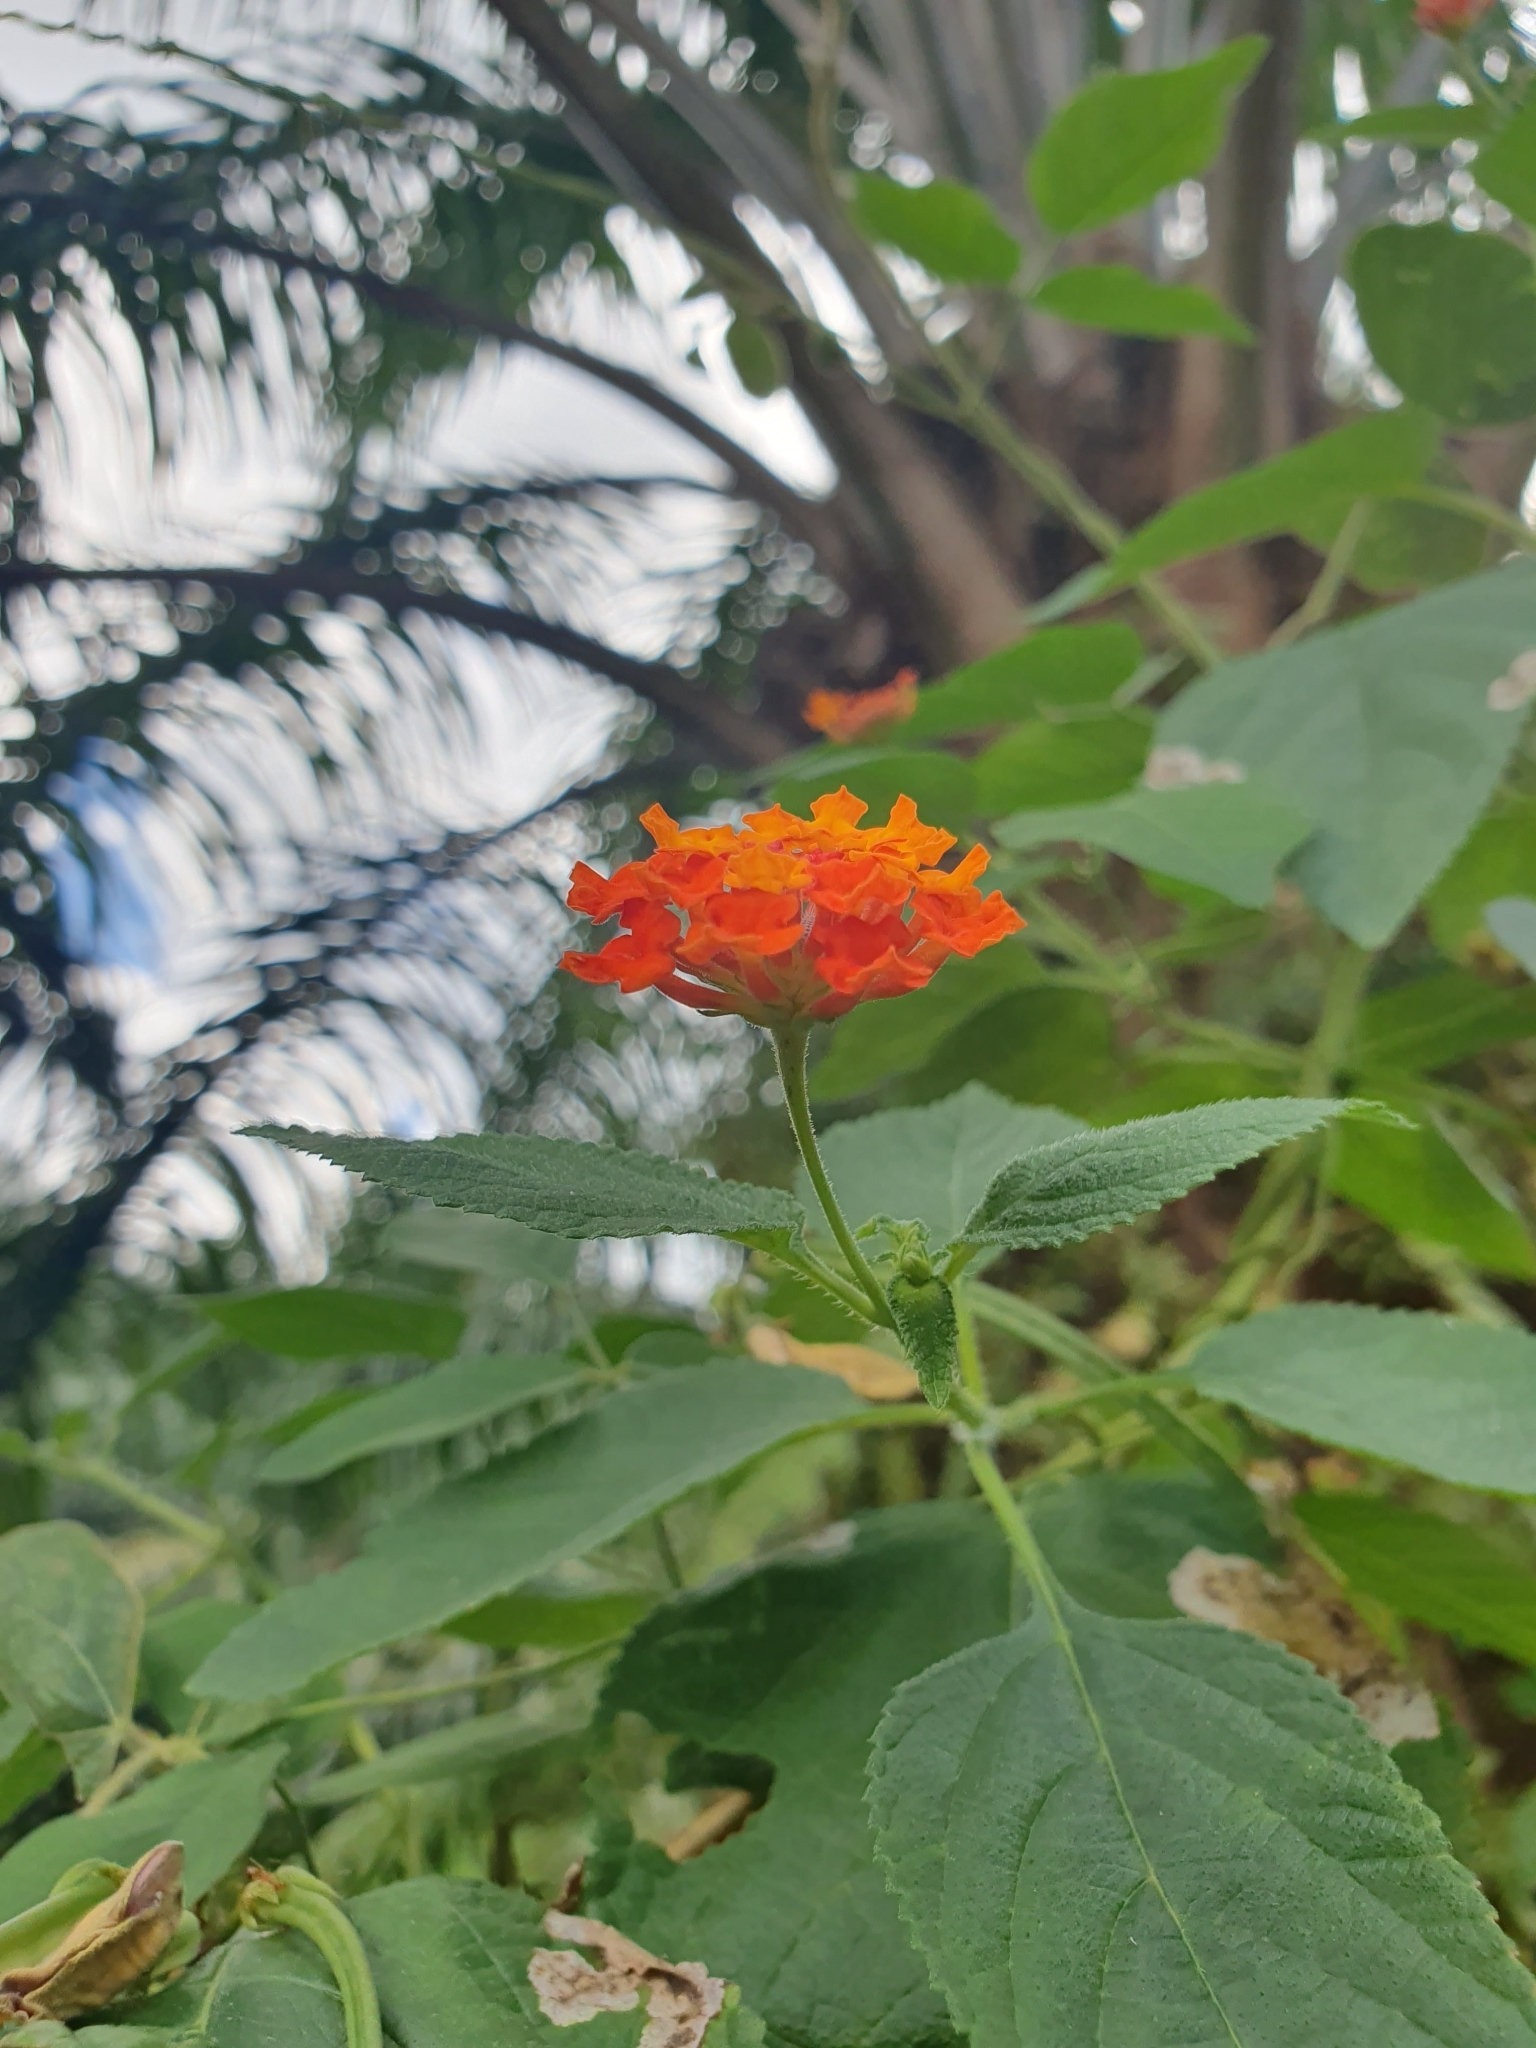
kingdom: Plantae
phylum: Tracheophyta
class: Magnoliopsida
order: Lamiales
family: Verbenaceae
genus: Lantana
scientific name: Lantana camara
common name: Lantana
